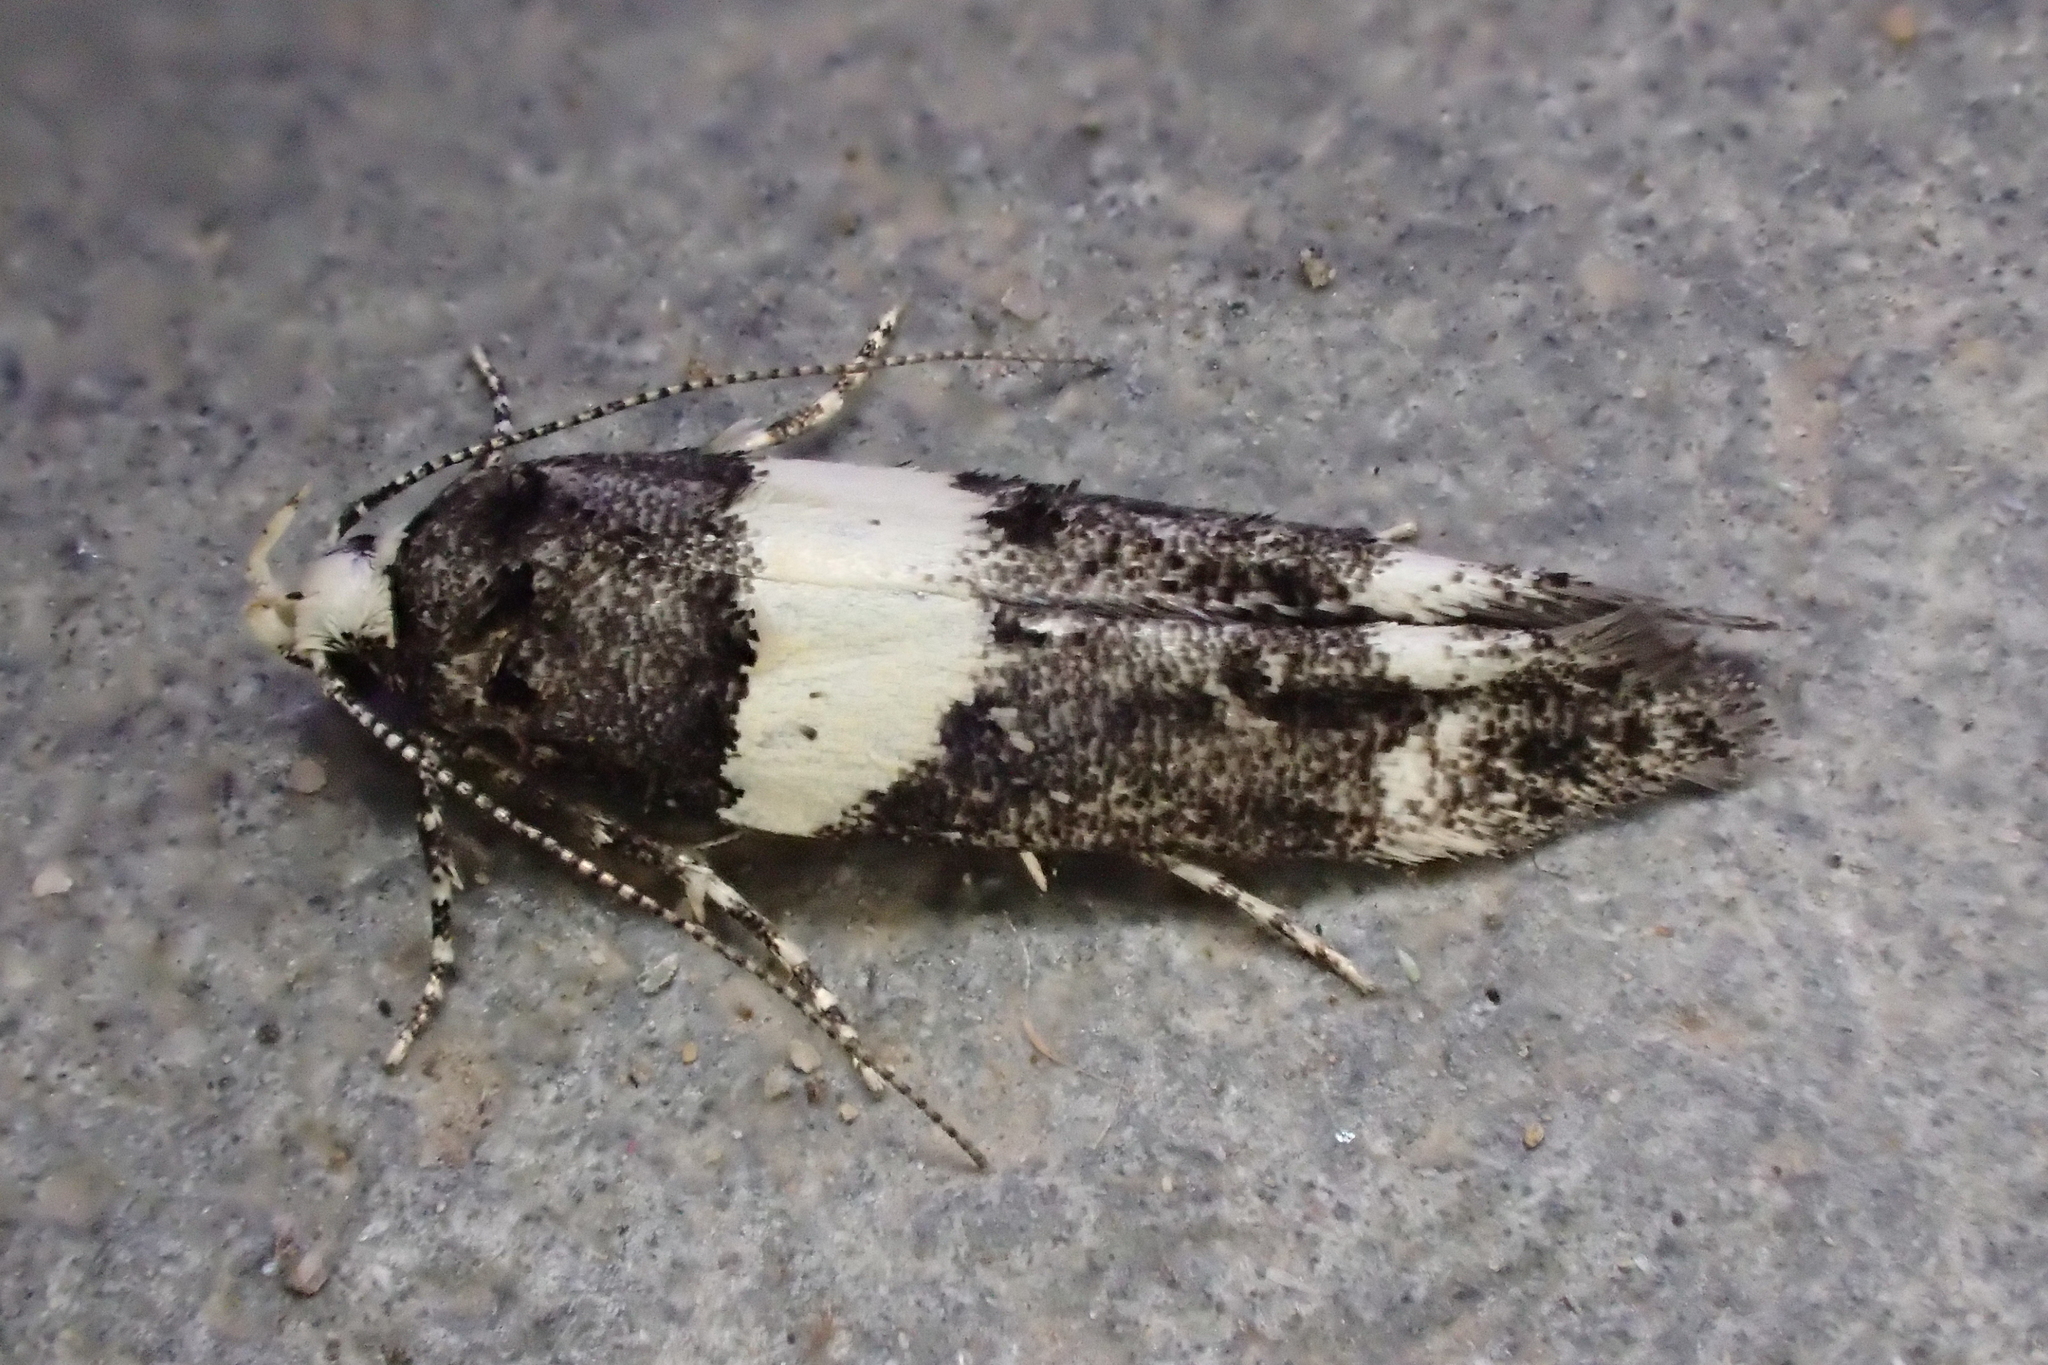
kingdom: Animalia
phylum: Arthropoda
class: Insecta
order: Lepidoptera
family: Gelechiidae
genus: Recurvaria
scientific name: Recurvaria leucatella
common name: White-barred groundling
